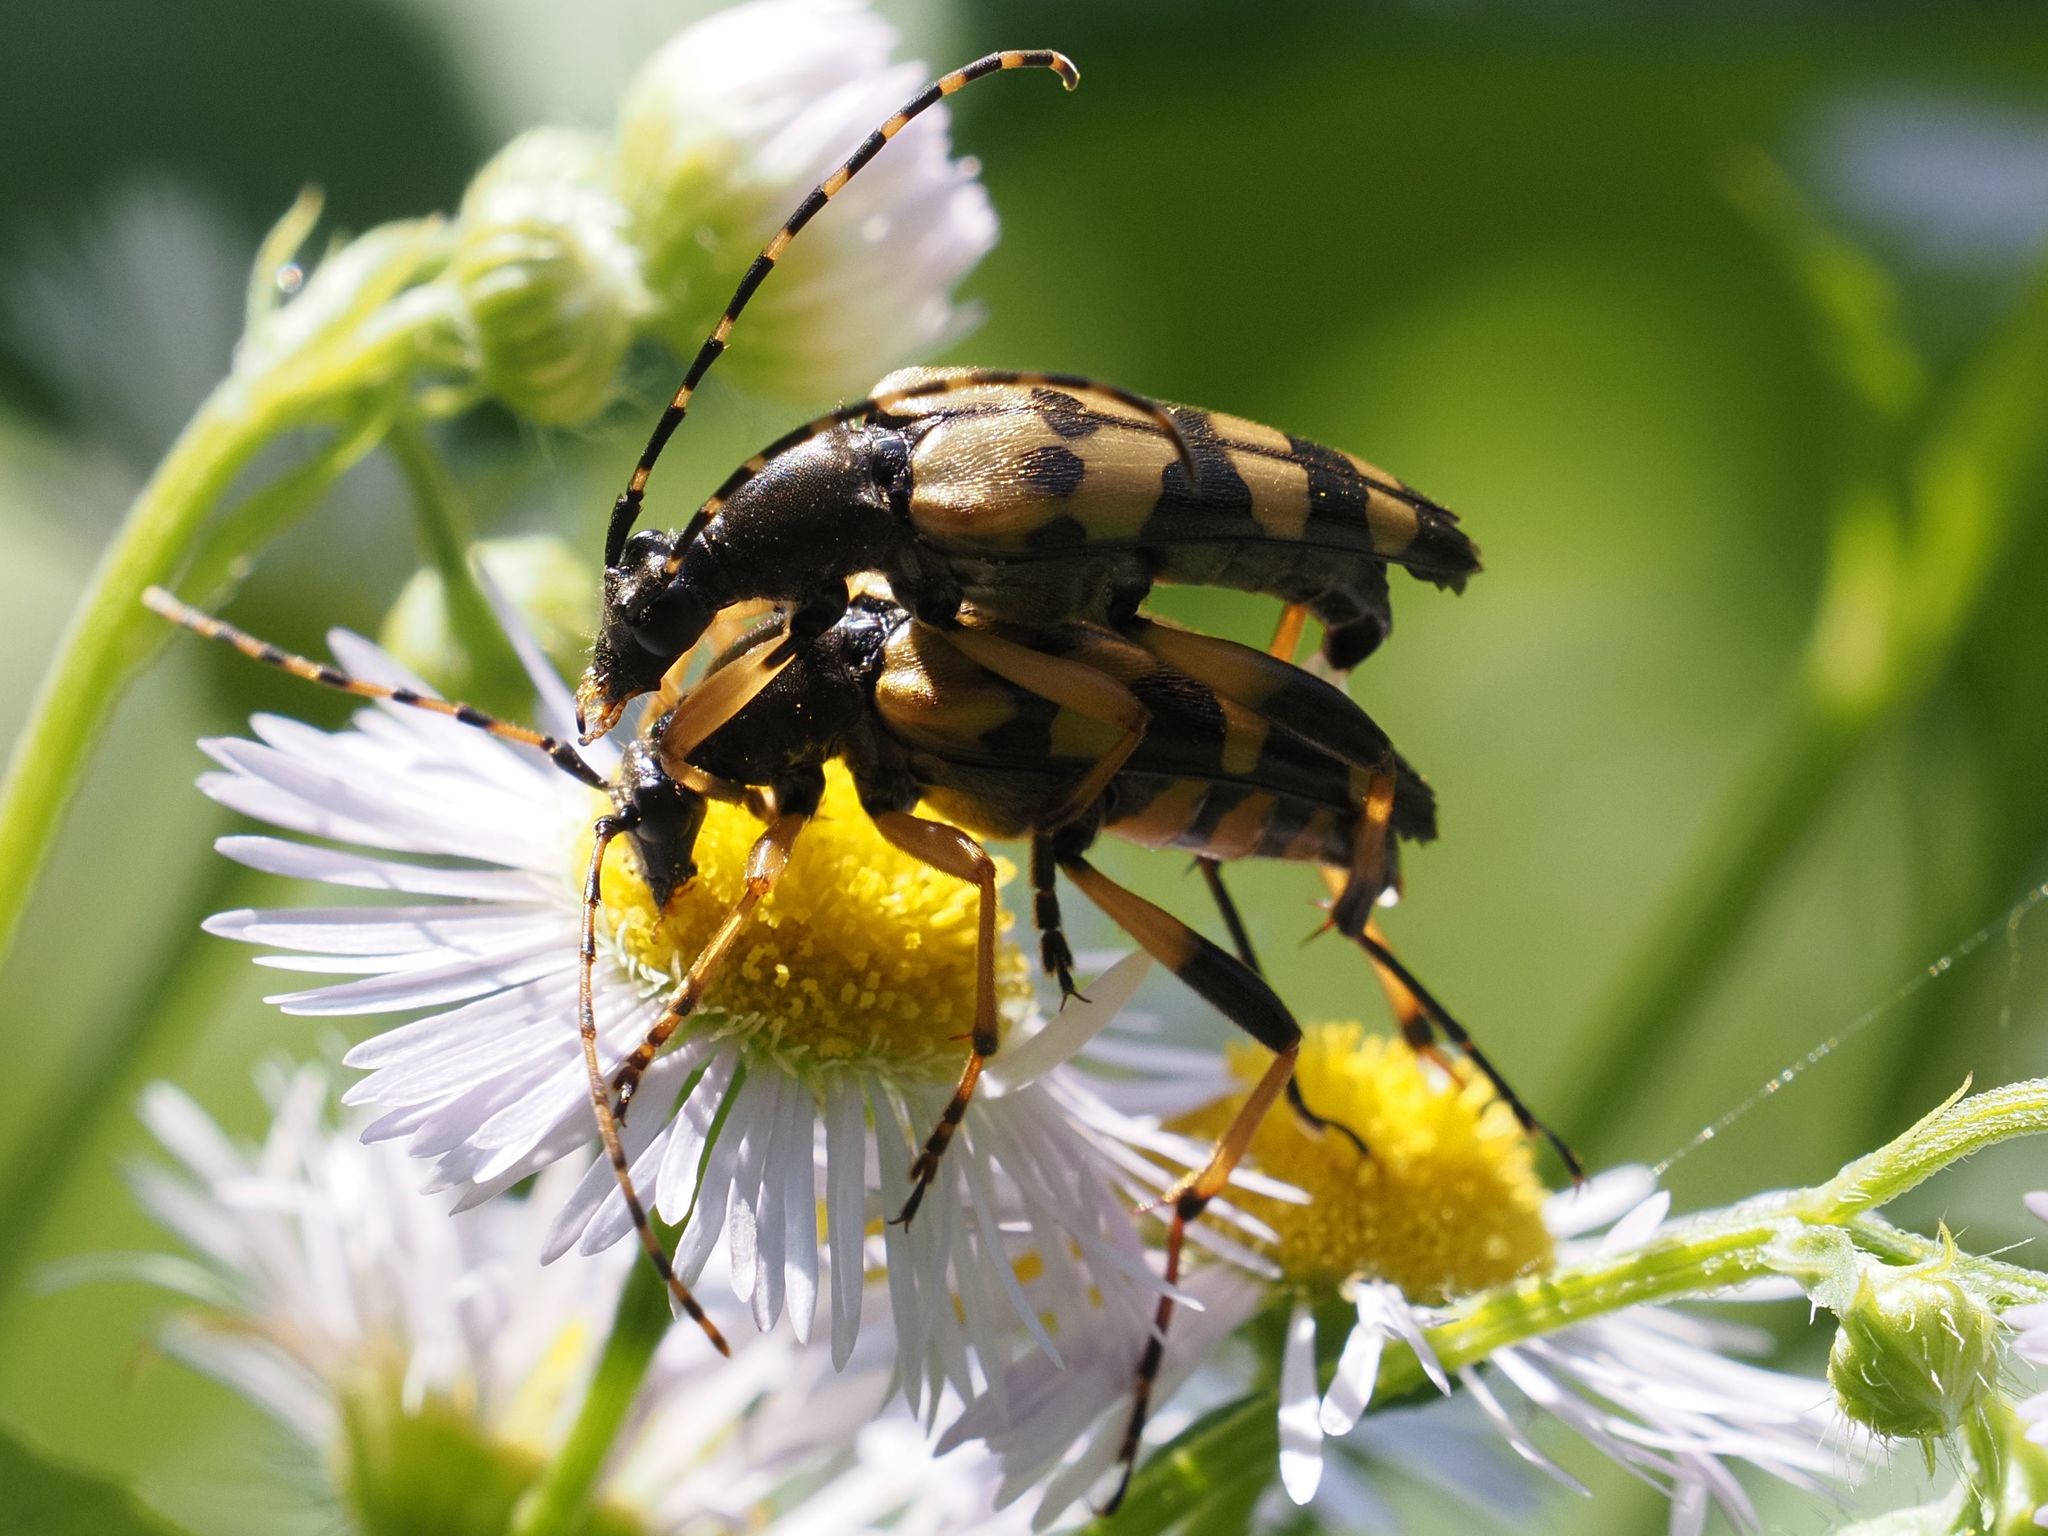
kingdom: Animalia
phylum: Arthropoda
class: Insecta
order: Coleoptera
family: Cerambycidae
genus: Rutpela
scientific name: Rutpela maculata
